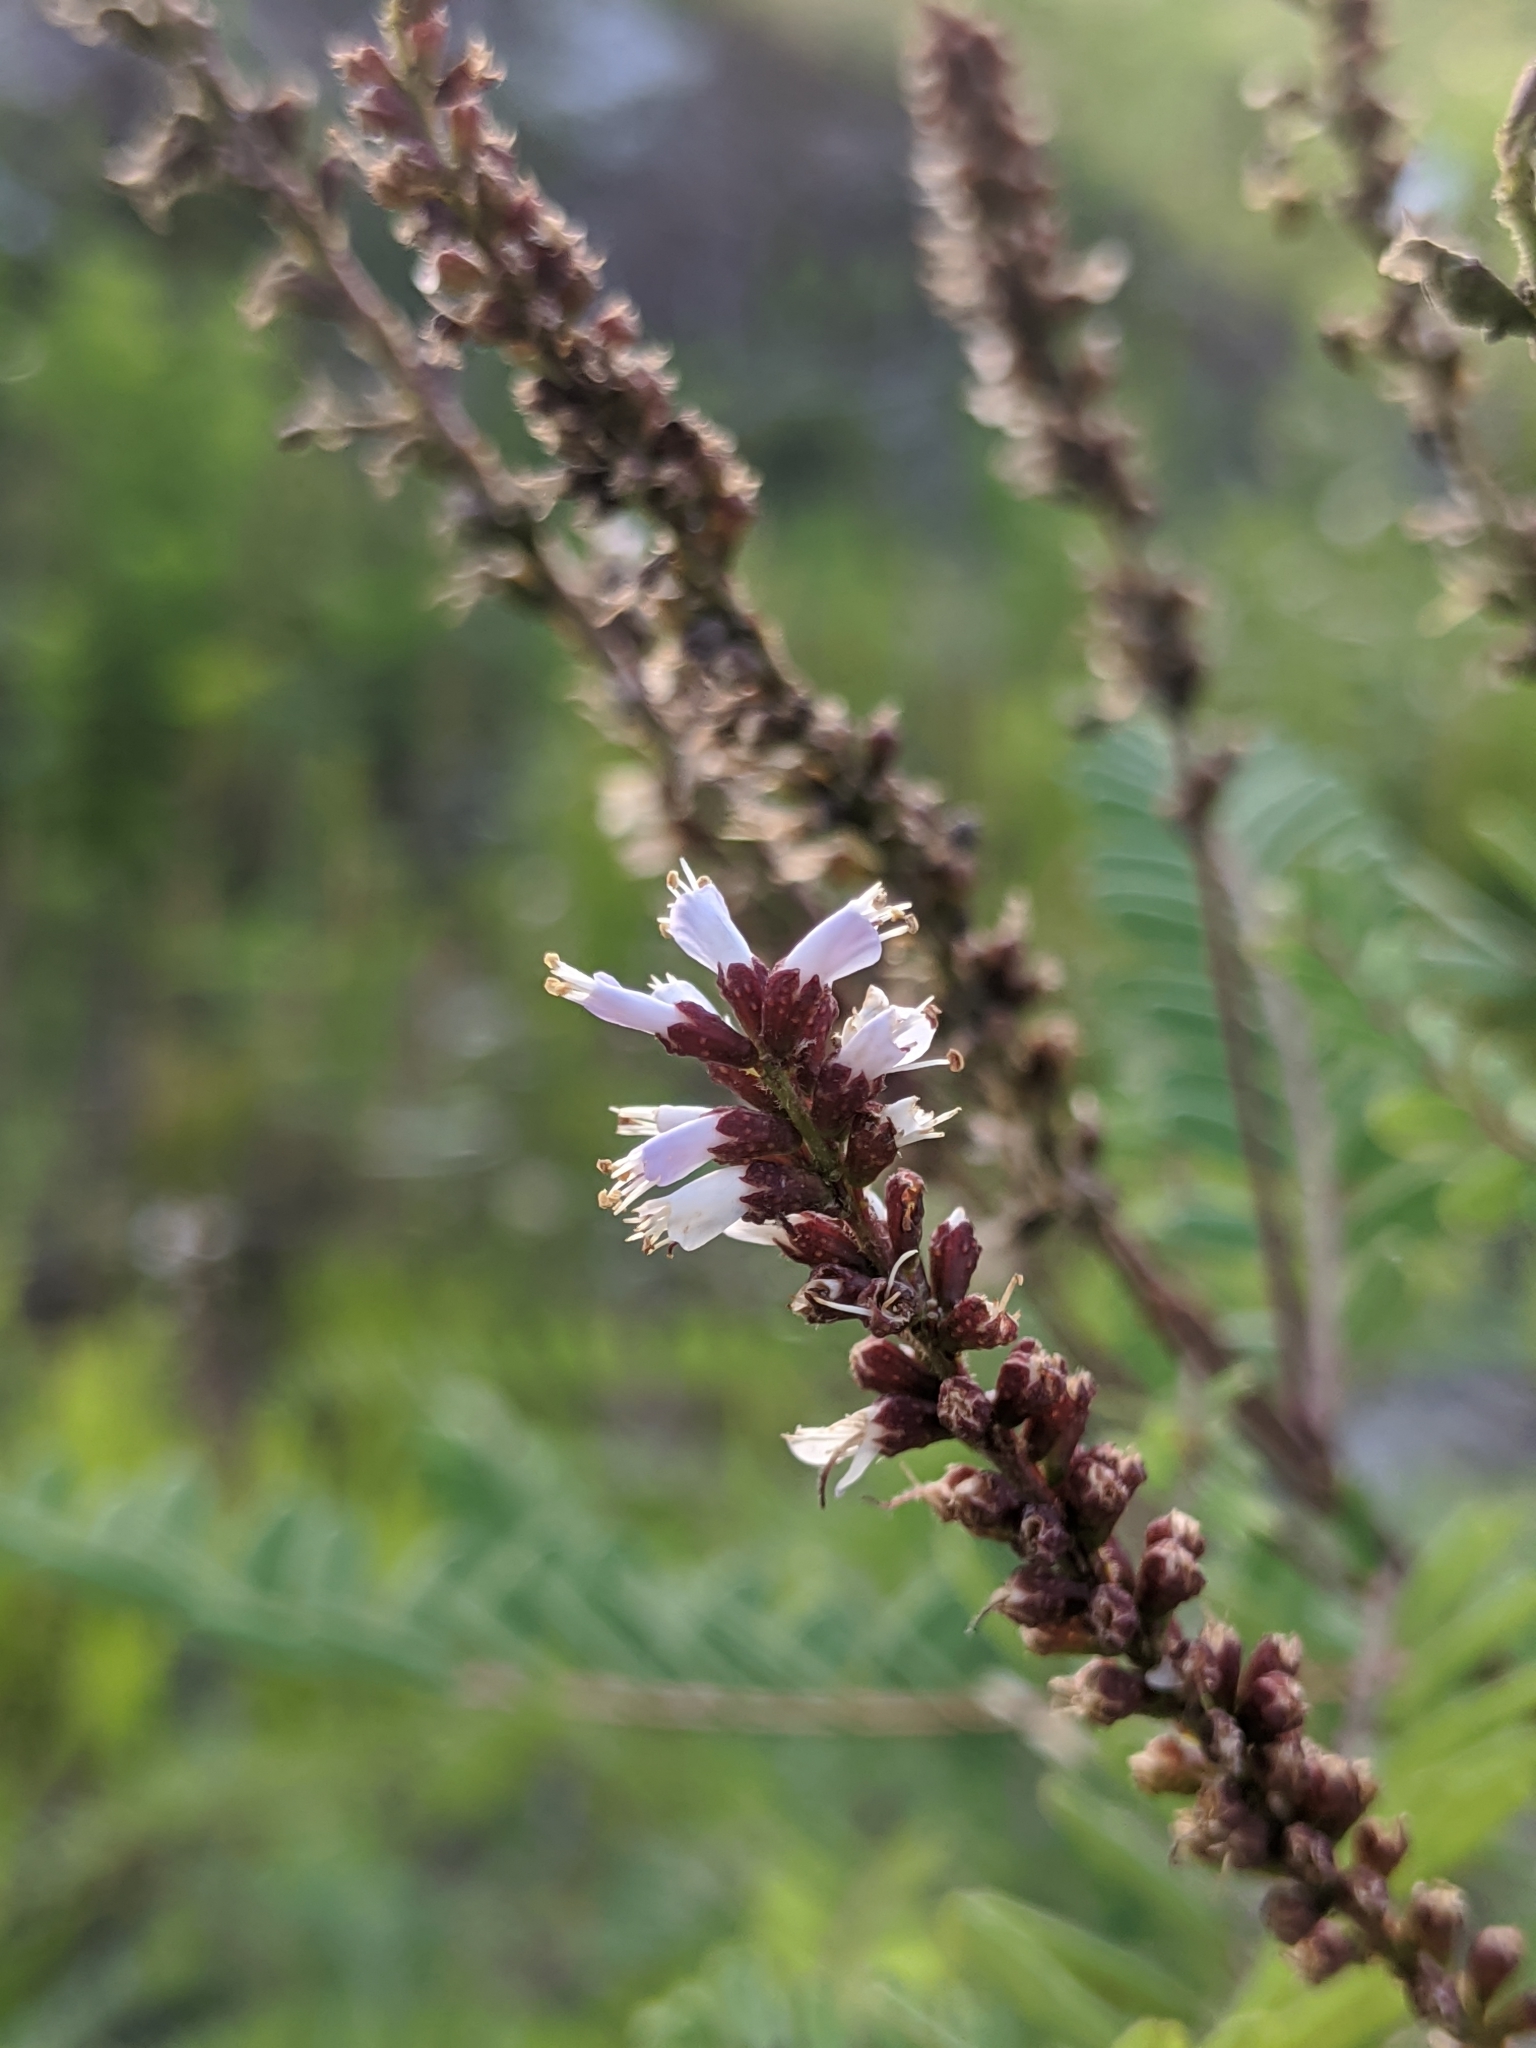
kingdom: Plantae
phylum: Tracheophyta
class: Magnoliopsida
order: Fabales
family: Fabaceae
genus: Amorpha
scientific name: Amorpha herbacea
